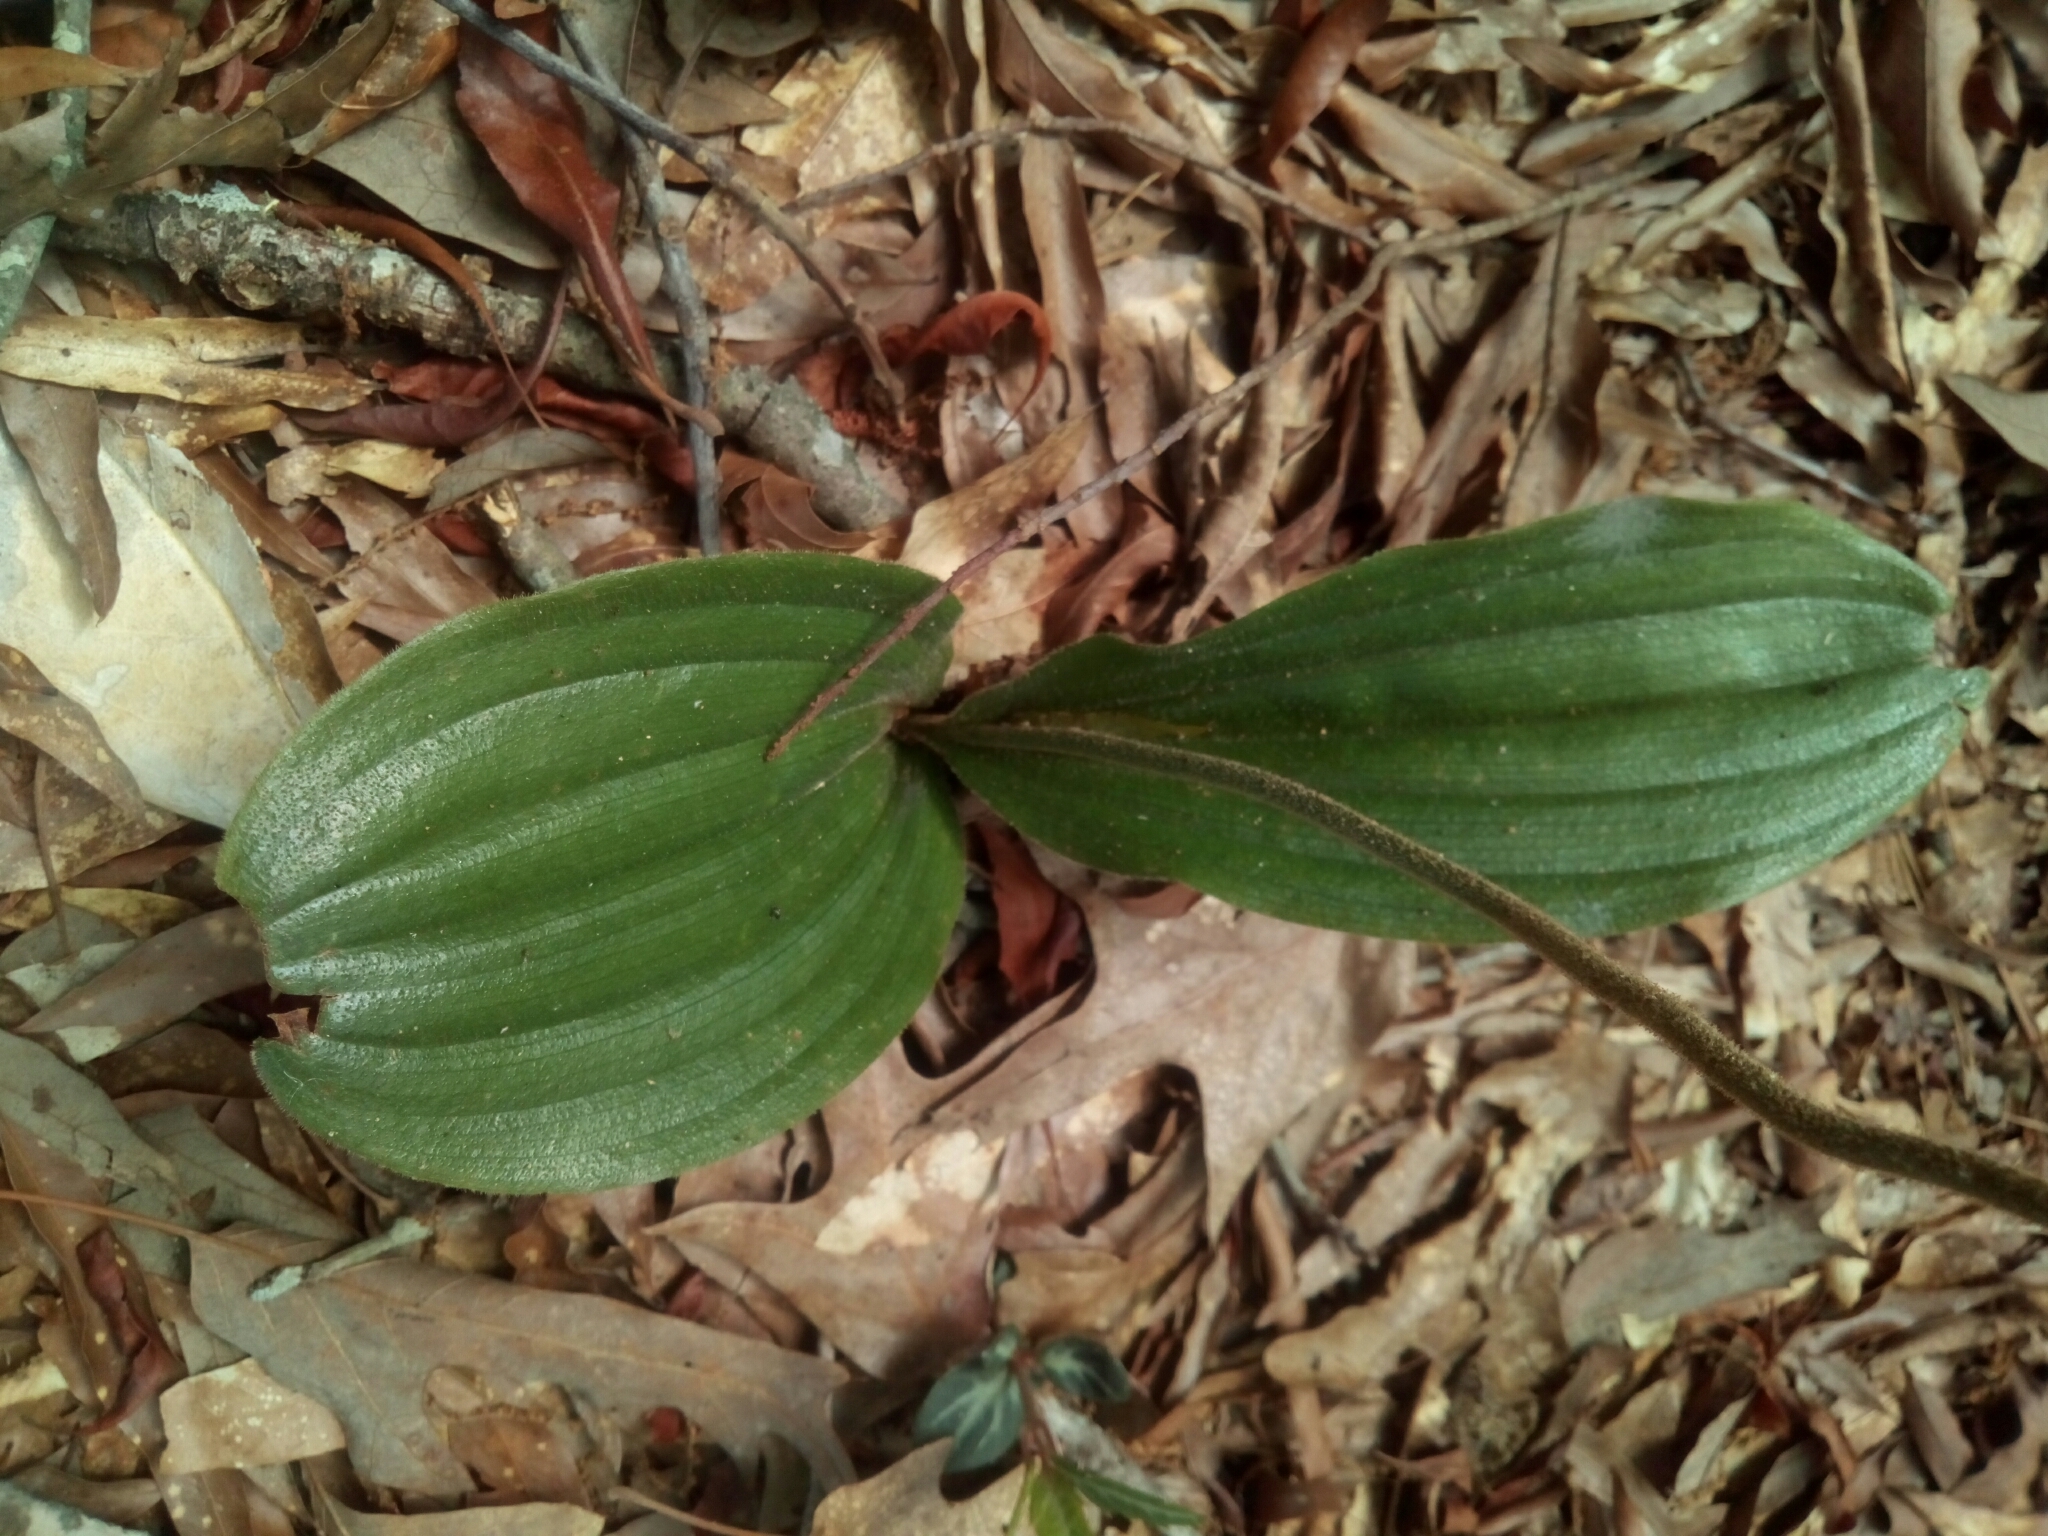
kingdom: Plantae
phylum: Tracheophyta
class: Liliopsida
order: Asparagales
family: Orchidaceae
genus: Cypripedium
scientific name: Cypripedium acaule
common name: Pink lady's-slipper
